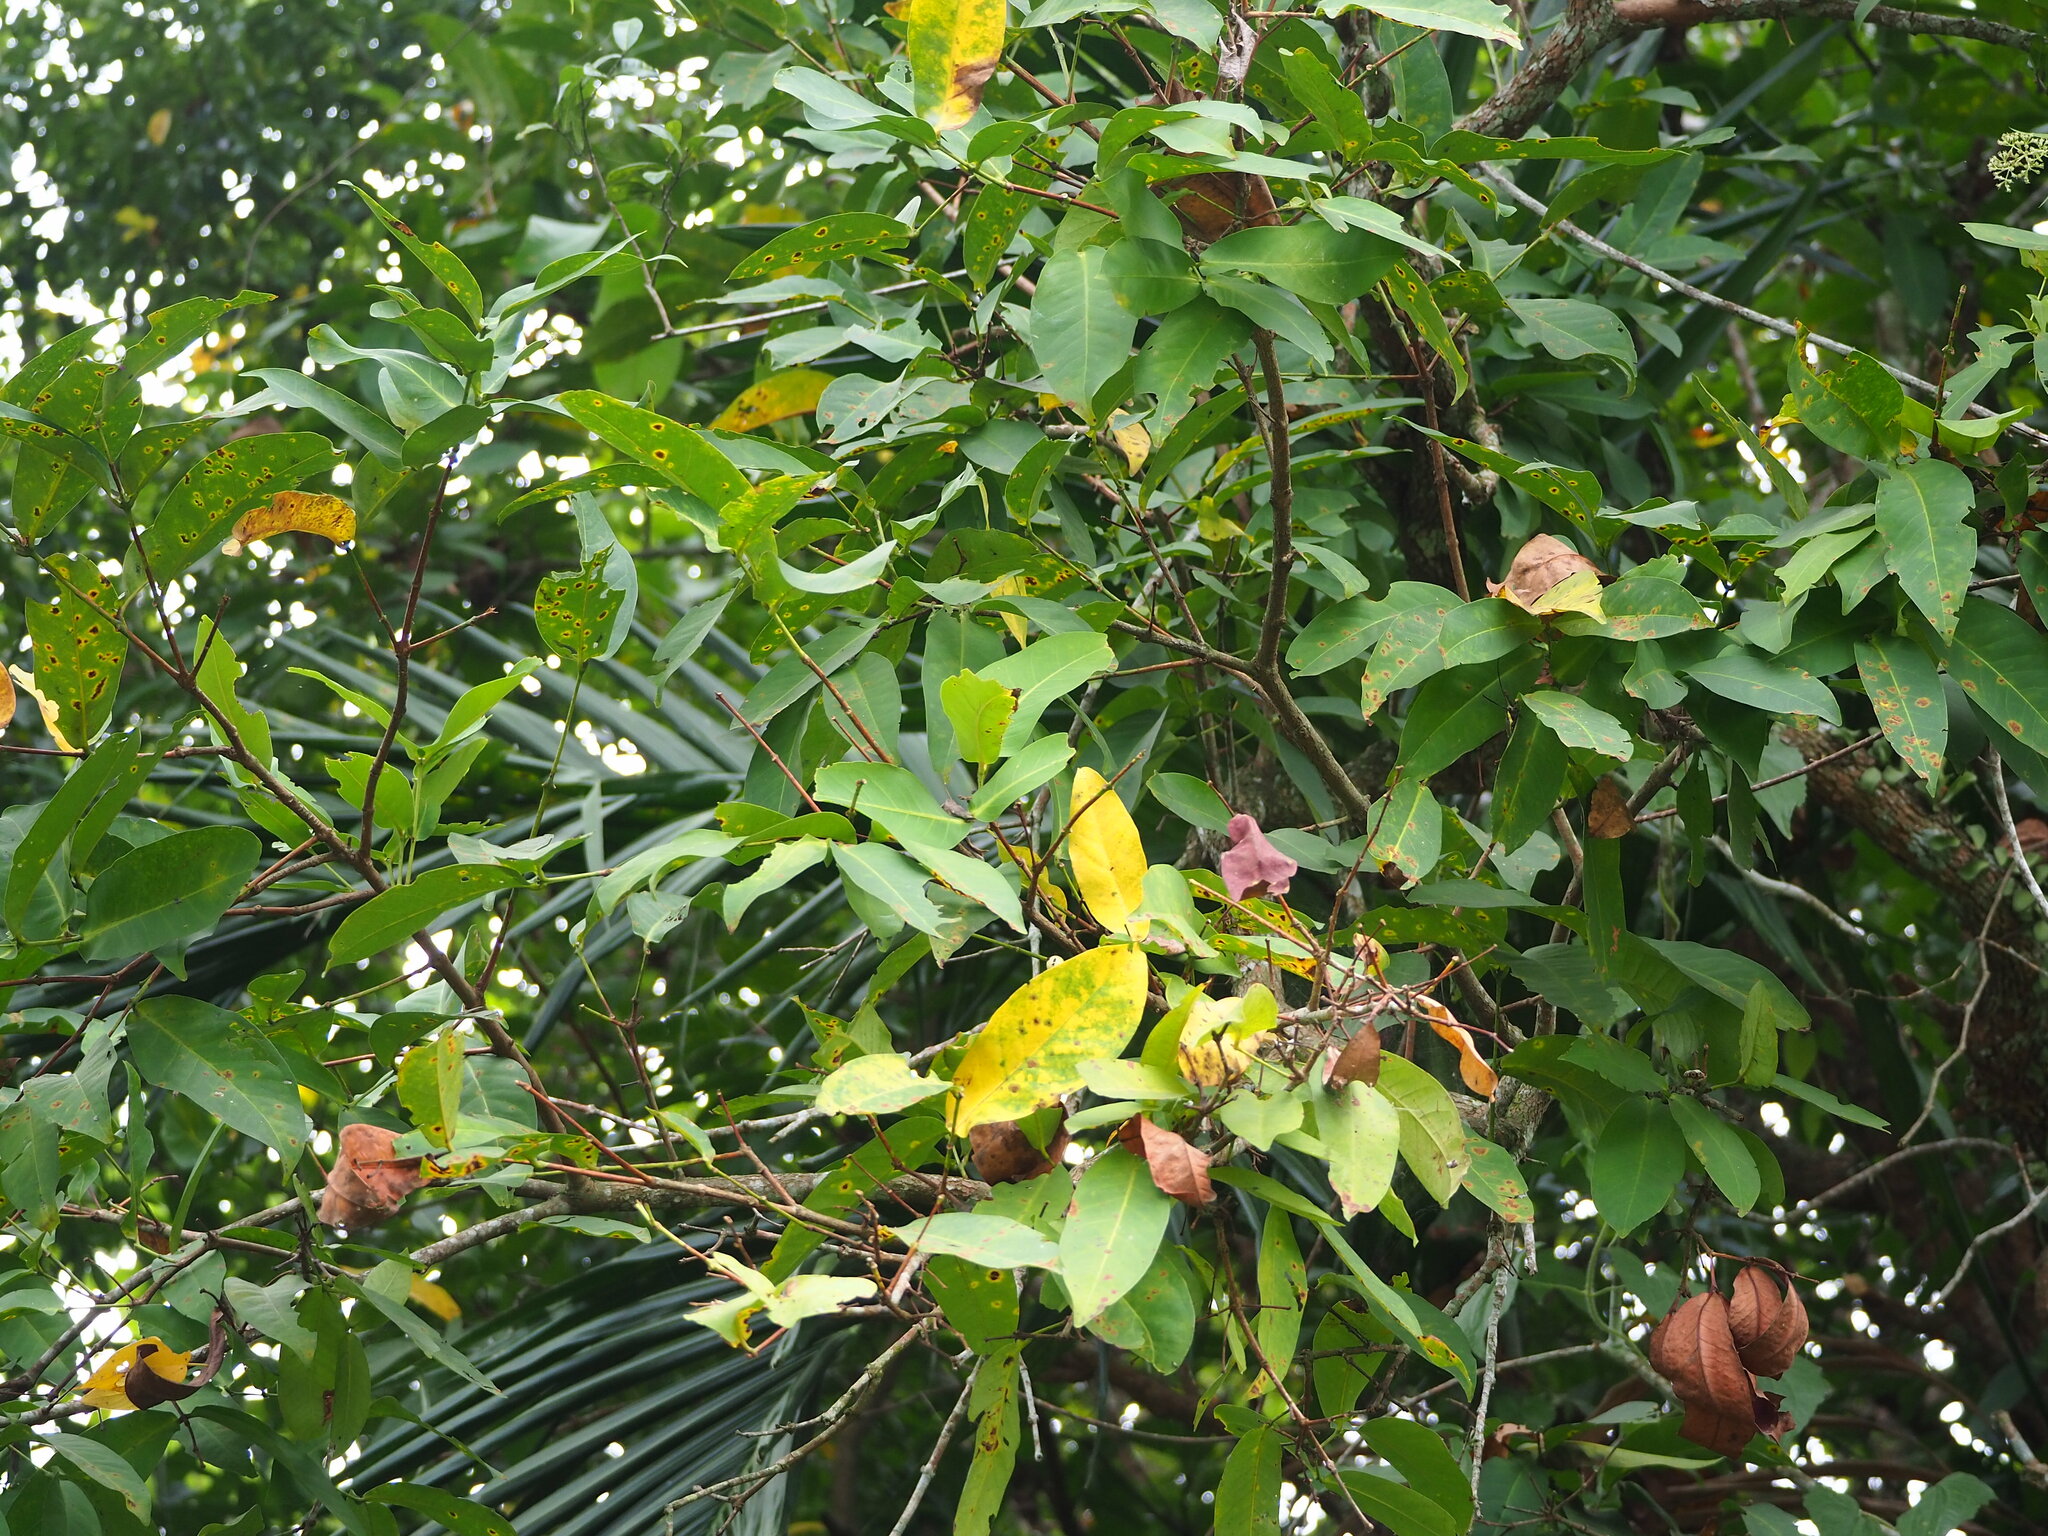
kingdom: Plantae
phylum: Tracheophyta
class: Magnoliopsida
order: Myrtales
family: Myrtaceae
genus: Syzygium
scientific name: Syzygium samarangense
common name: Semarang rose-apple
